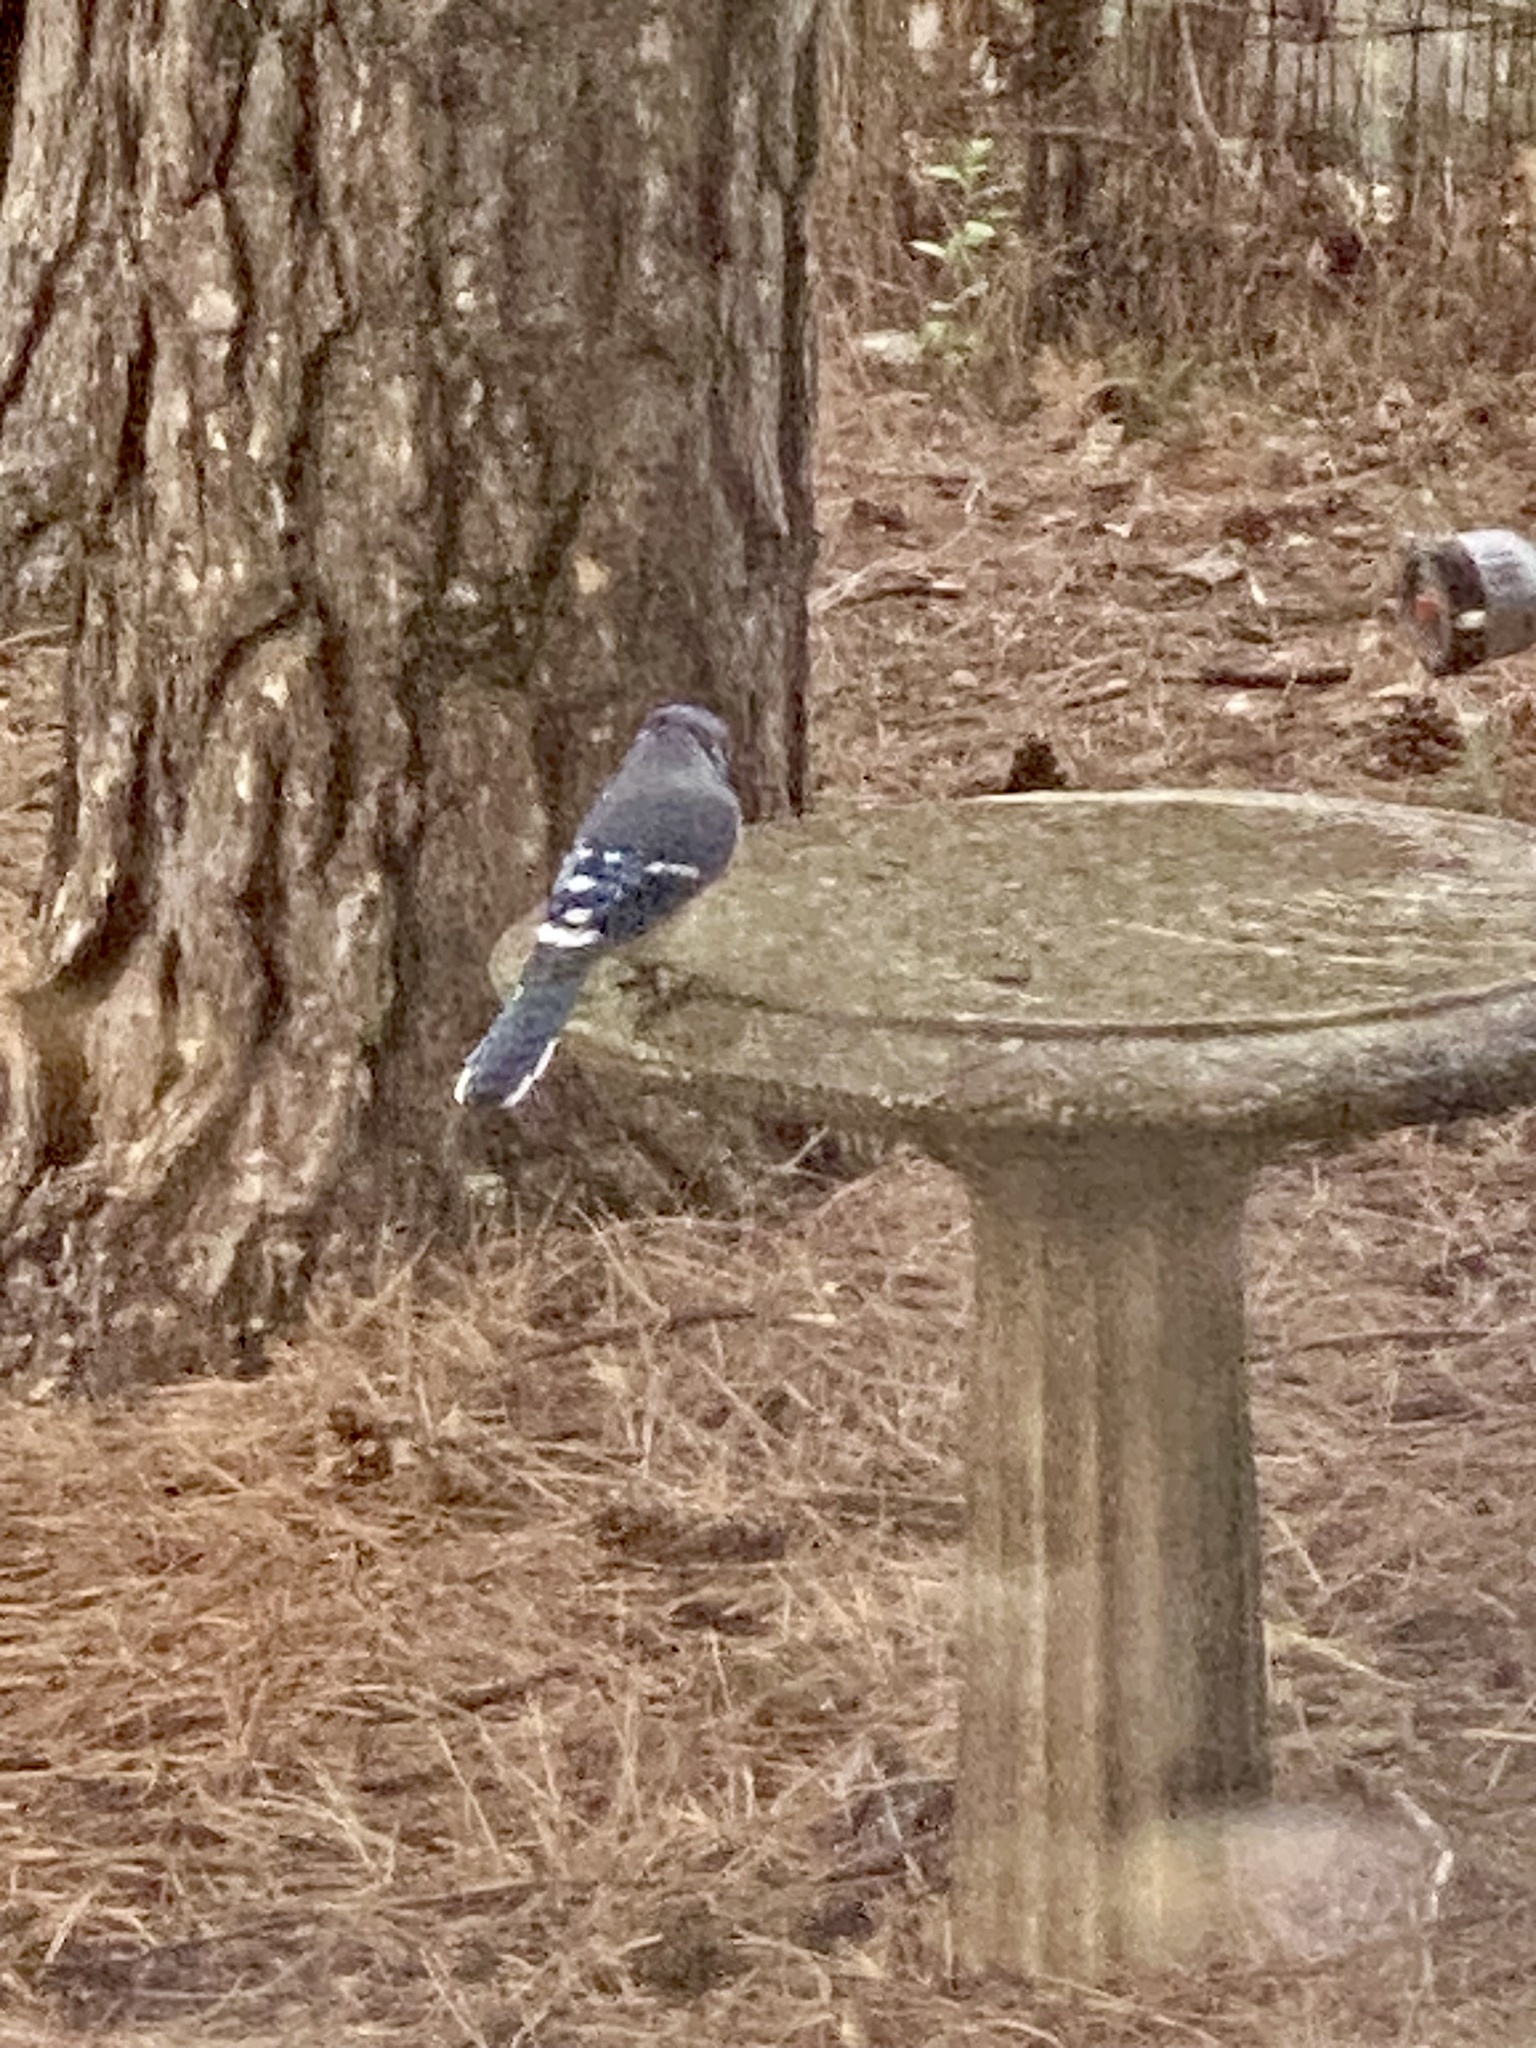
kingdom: Animalia
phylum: Chordata
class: Aves
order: Passeriformes
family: Corvidae
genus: Cyanocitta
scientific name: Cyanocitta cristata
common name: Blue jay
